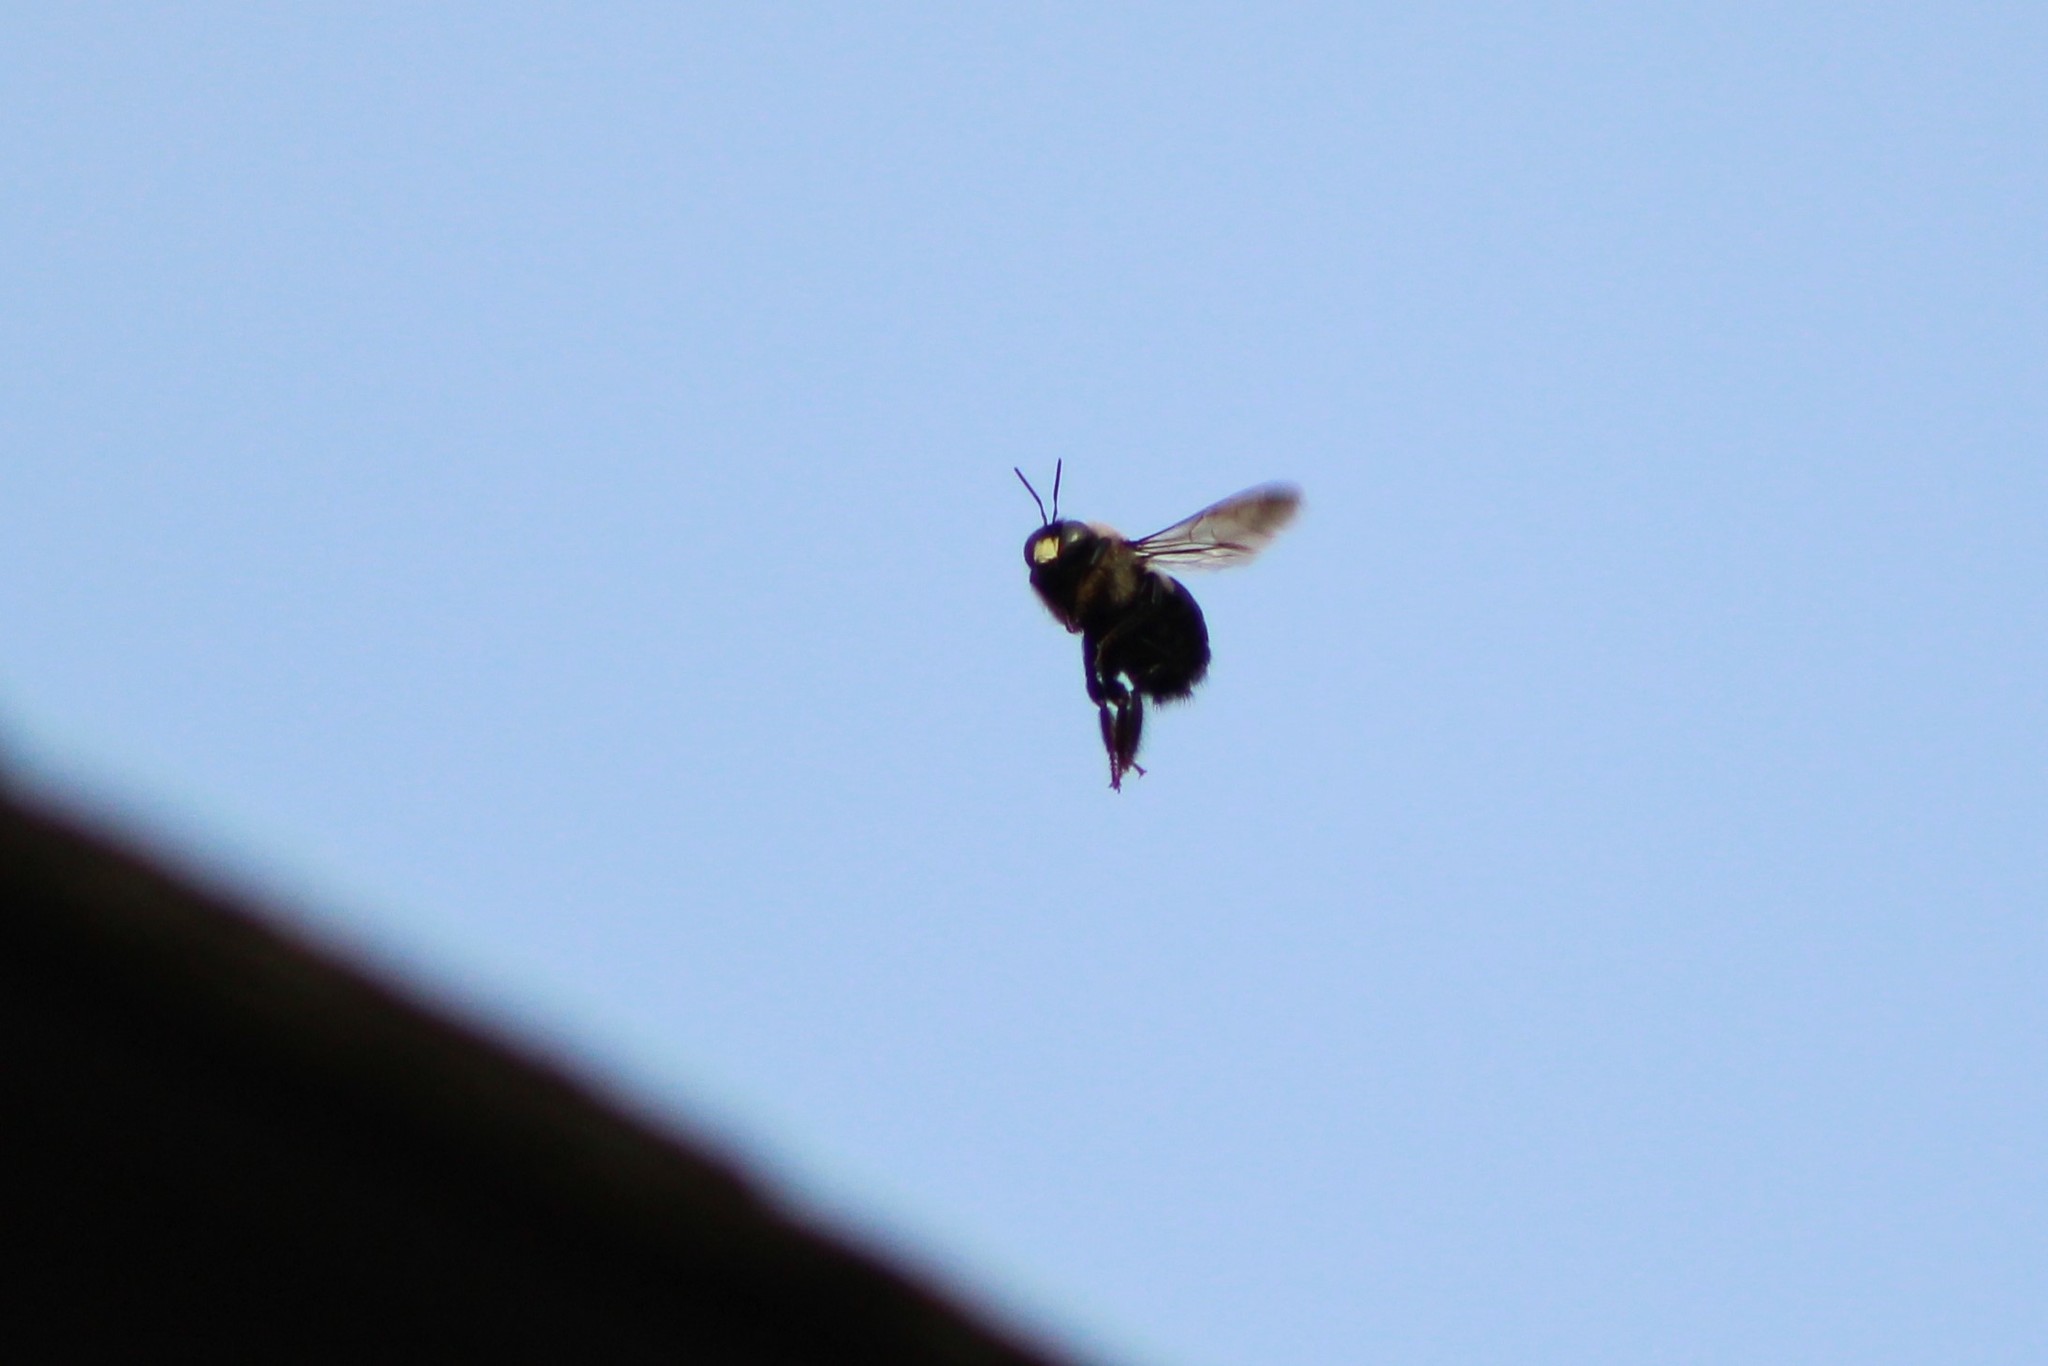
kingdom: Animalia
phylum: Arthropoda
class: Insecta
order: Hymenoptera
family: Apidae
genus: Xylocopa
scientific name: Xylocopa virginica
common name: Carpenter bee
